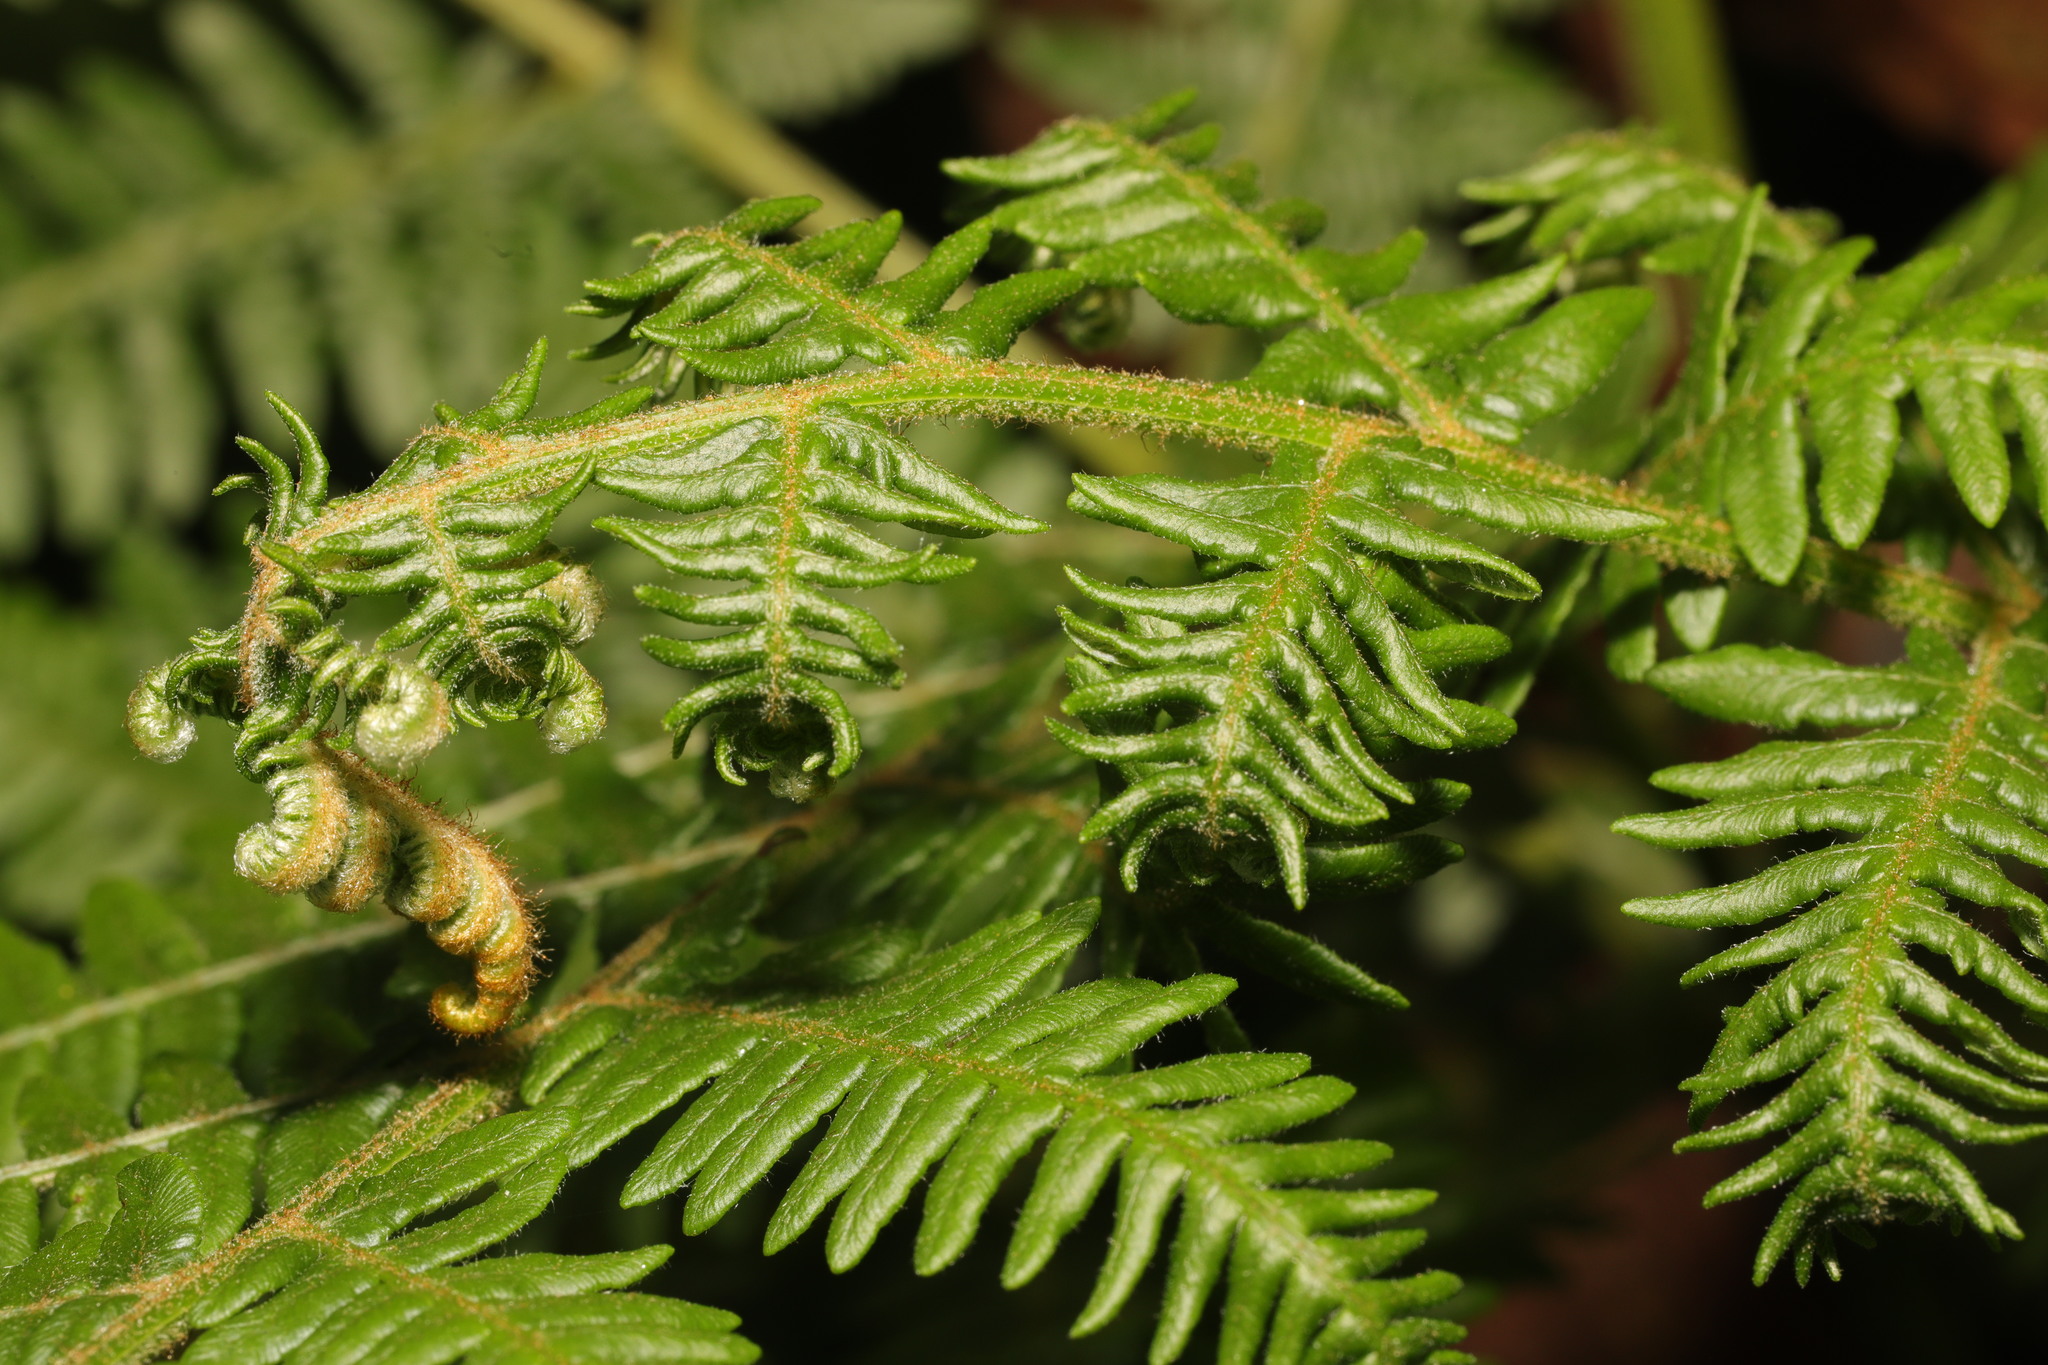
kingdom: Plantae
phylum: Tracheophyta
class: Polypodiopsida
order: Polypodiales
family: Dennstaedtiaceae
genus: Pteridium
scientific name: Pteridium aquilinum
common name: Bracken
